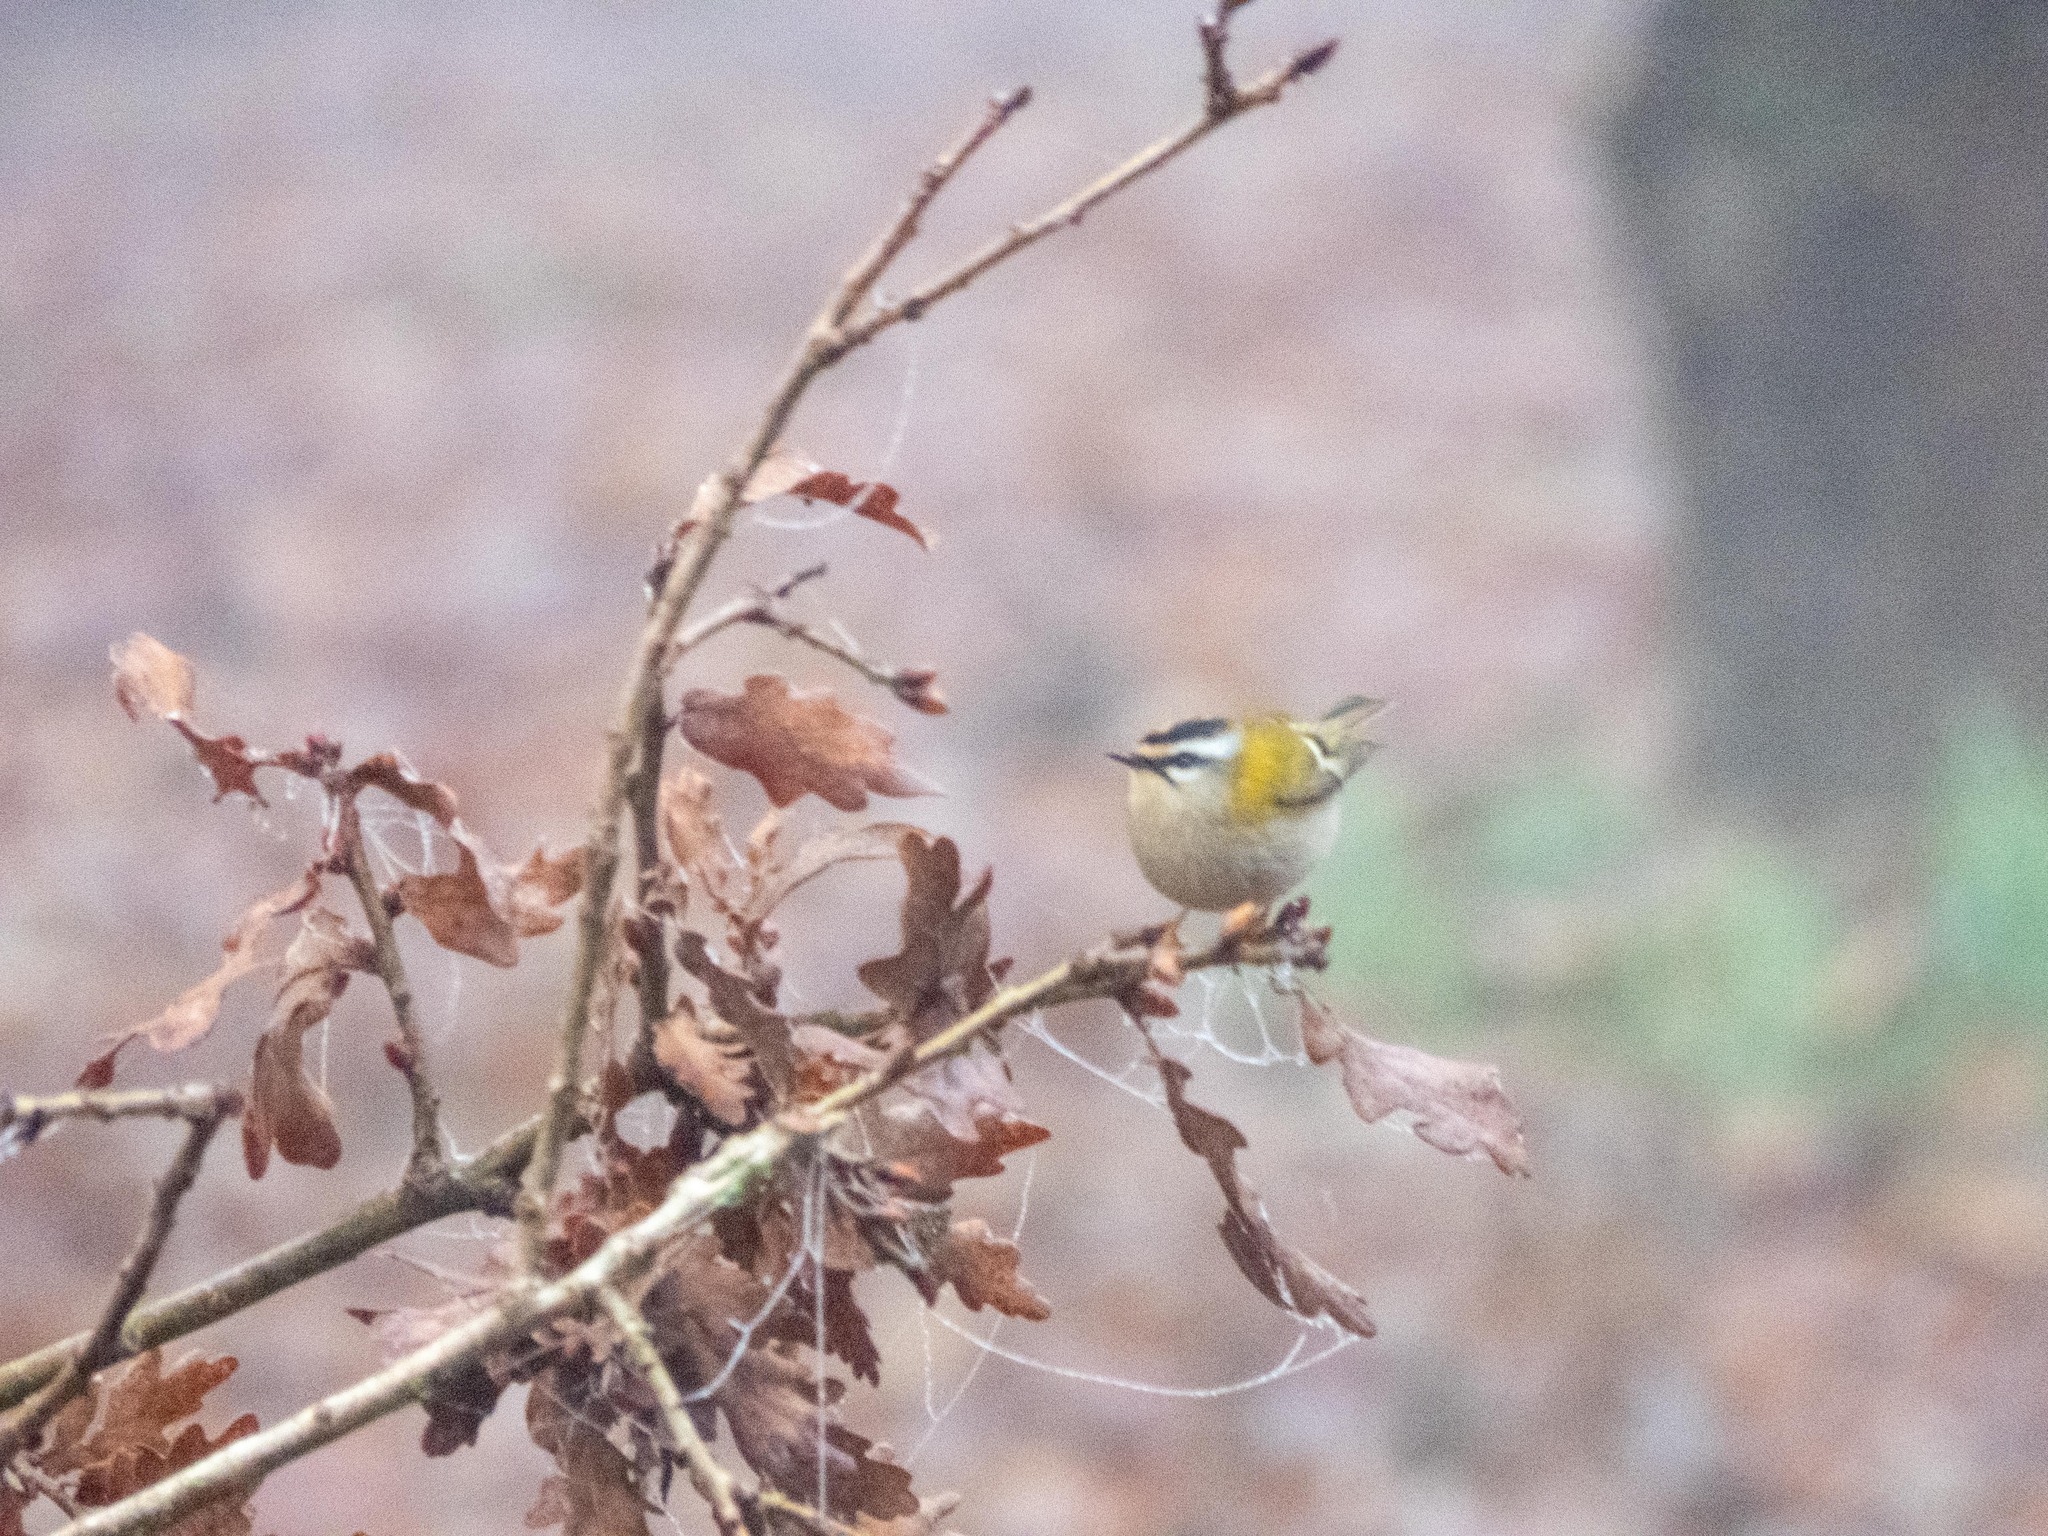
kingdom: Animalia
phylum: Chordata
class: Aves
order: Passeriformes
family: Regulidae
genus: Regulus
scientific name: Regulus ignicapilla
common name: Firecrest
